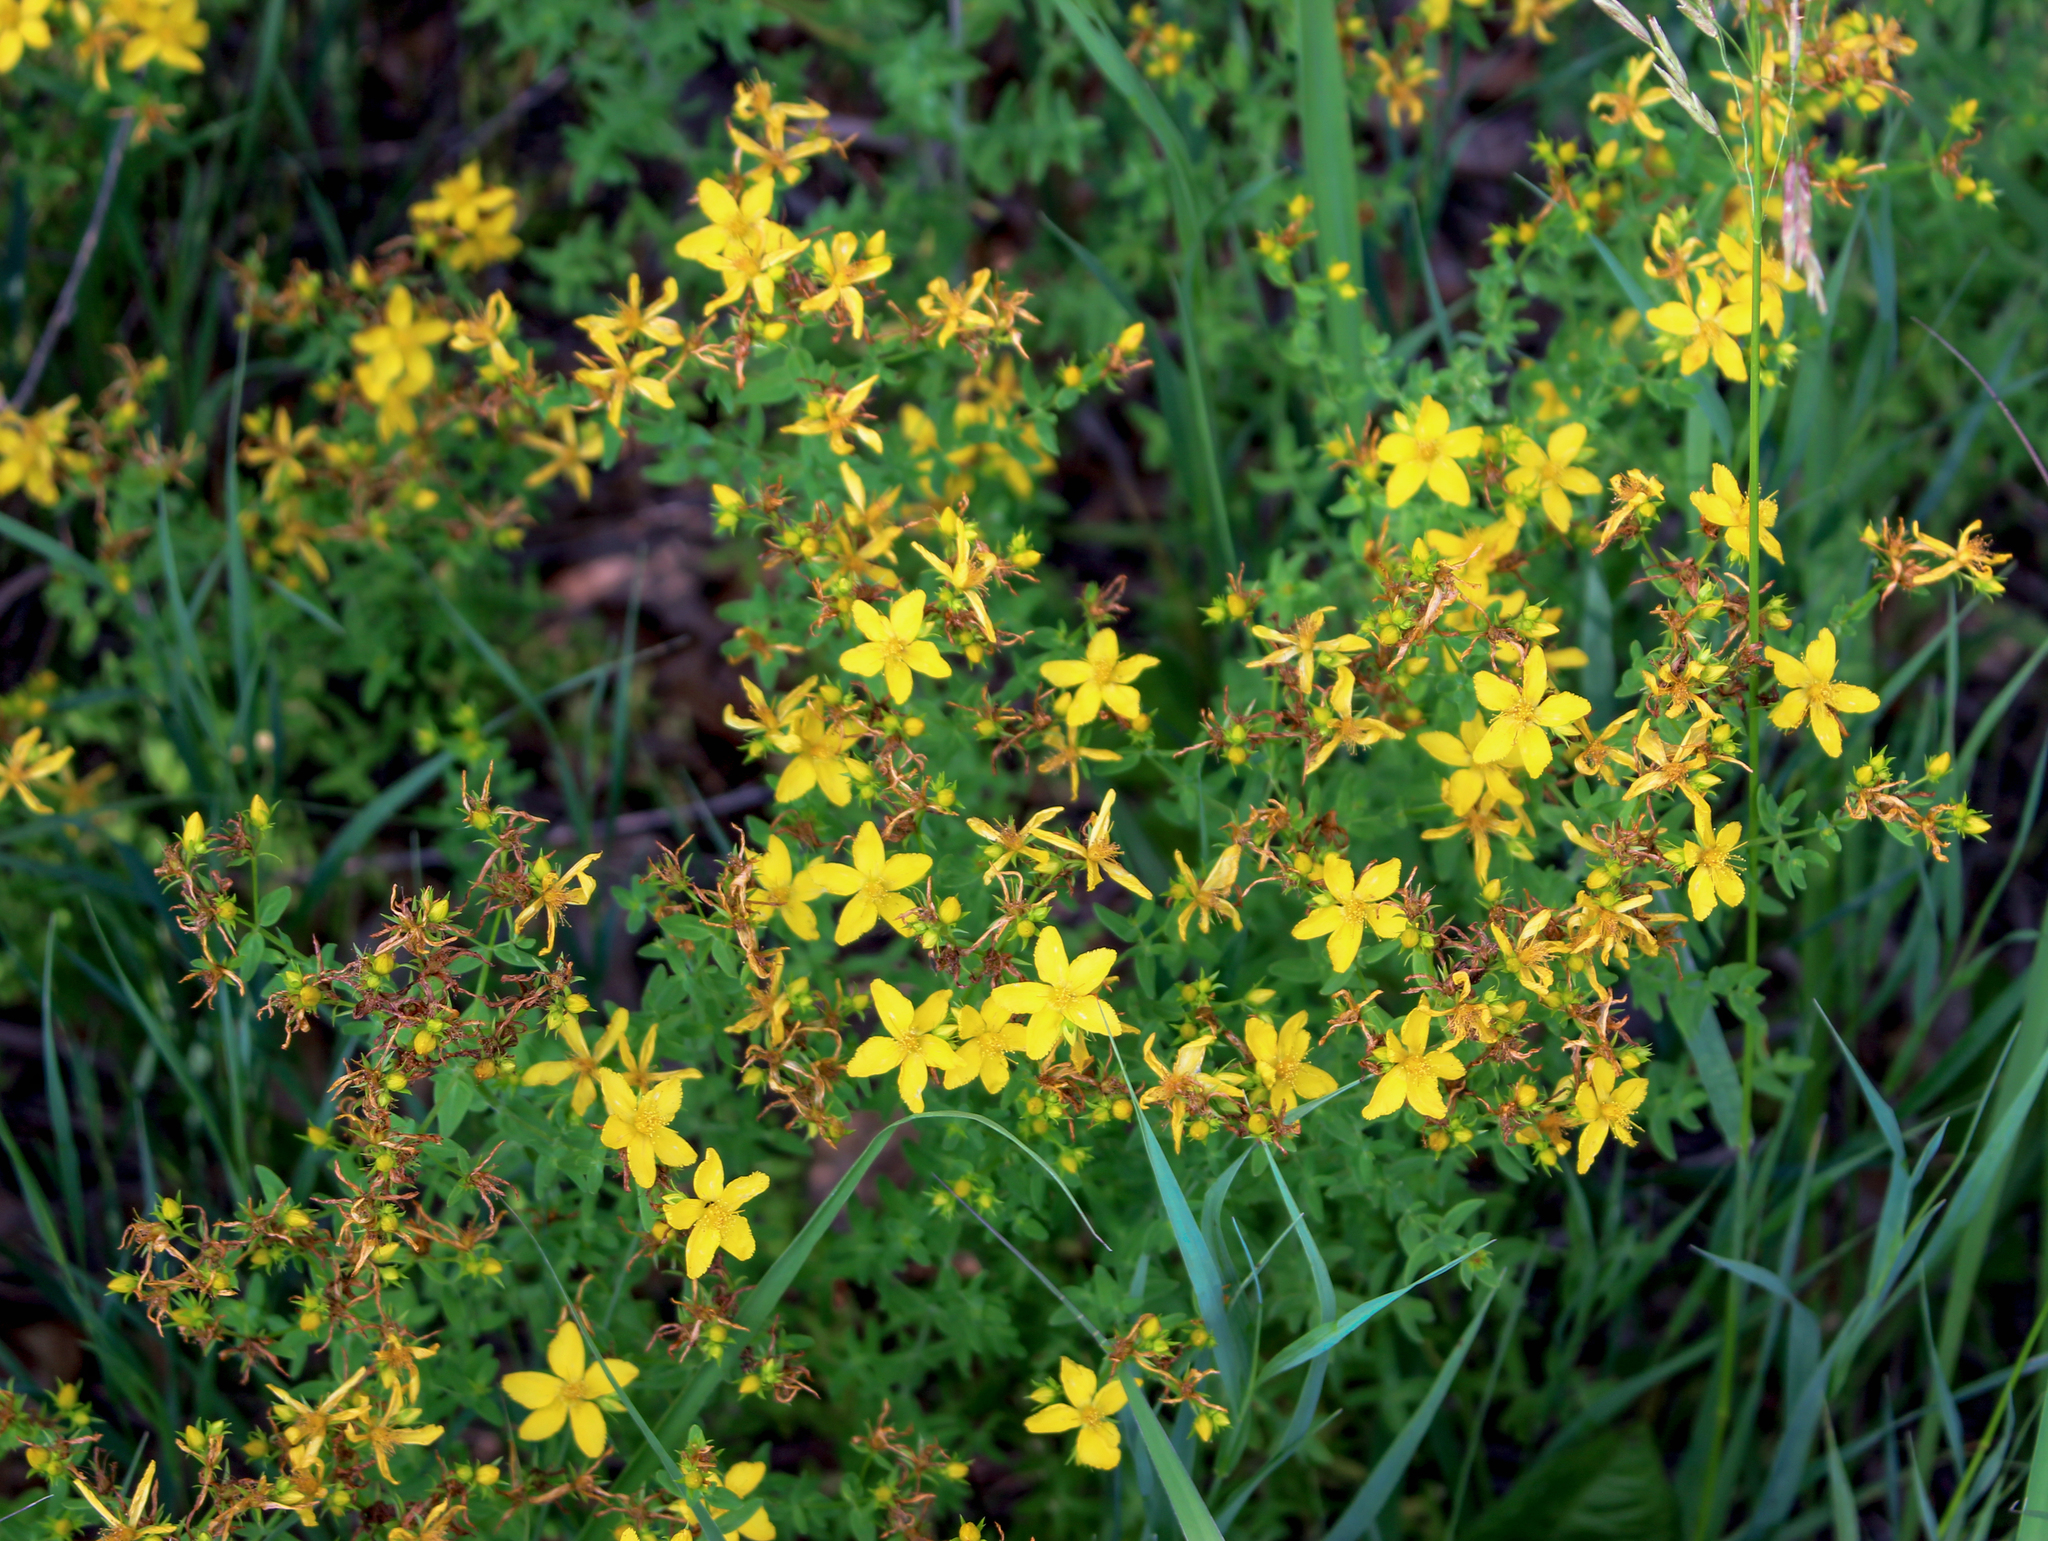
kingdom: Plantae
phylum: Tracheophyta
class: Magnoliopsida
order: Malpighiales
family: Hypericaceae
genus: Hypericum
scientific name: Hypericum perforatum
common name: Common st. johnswort
